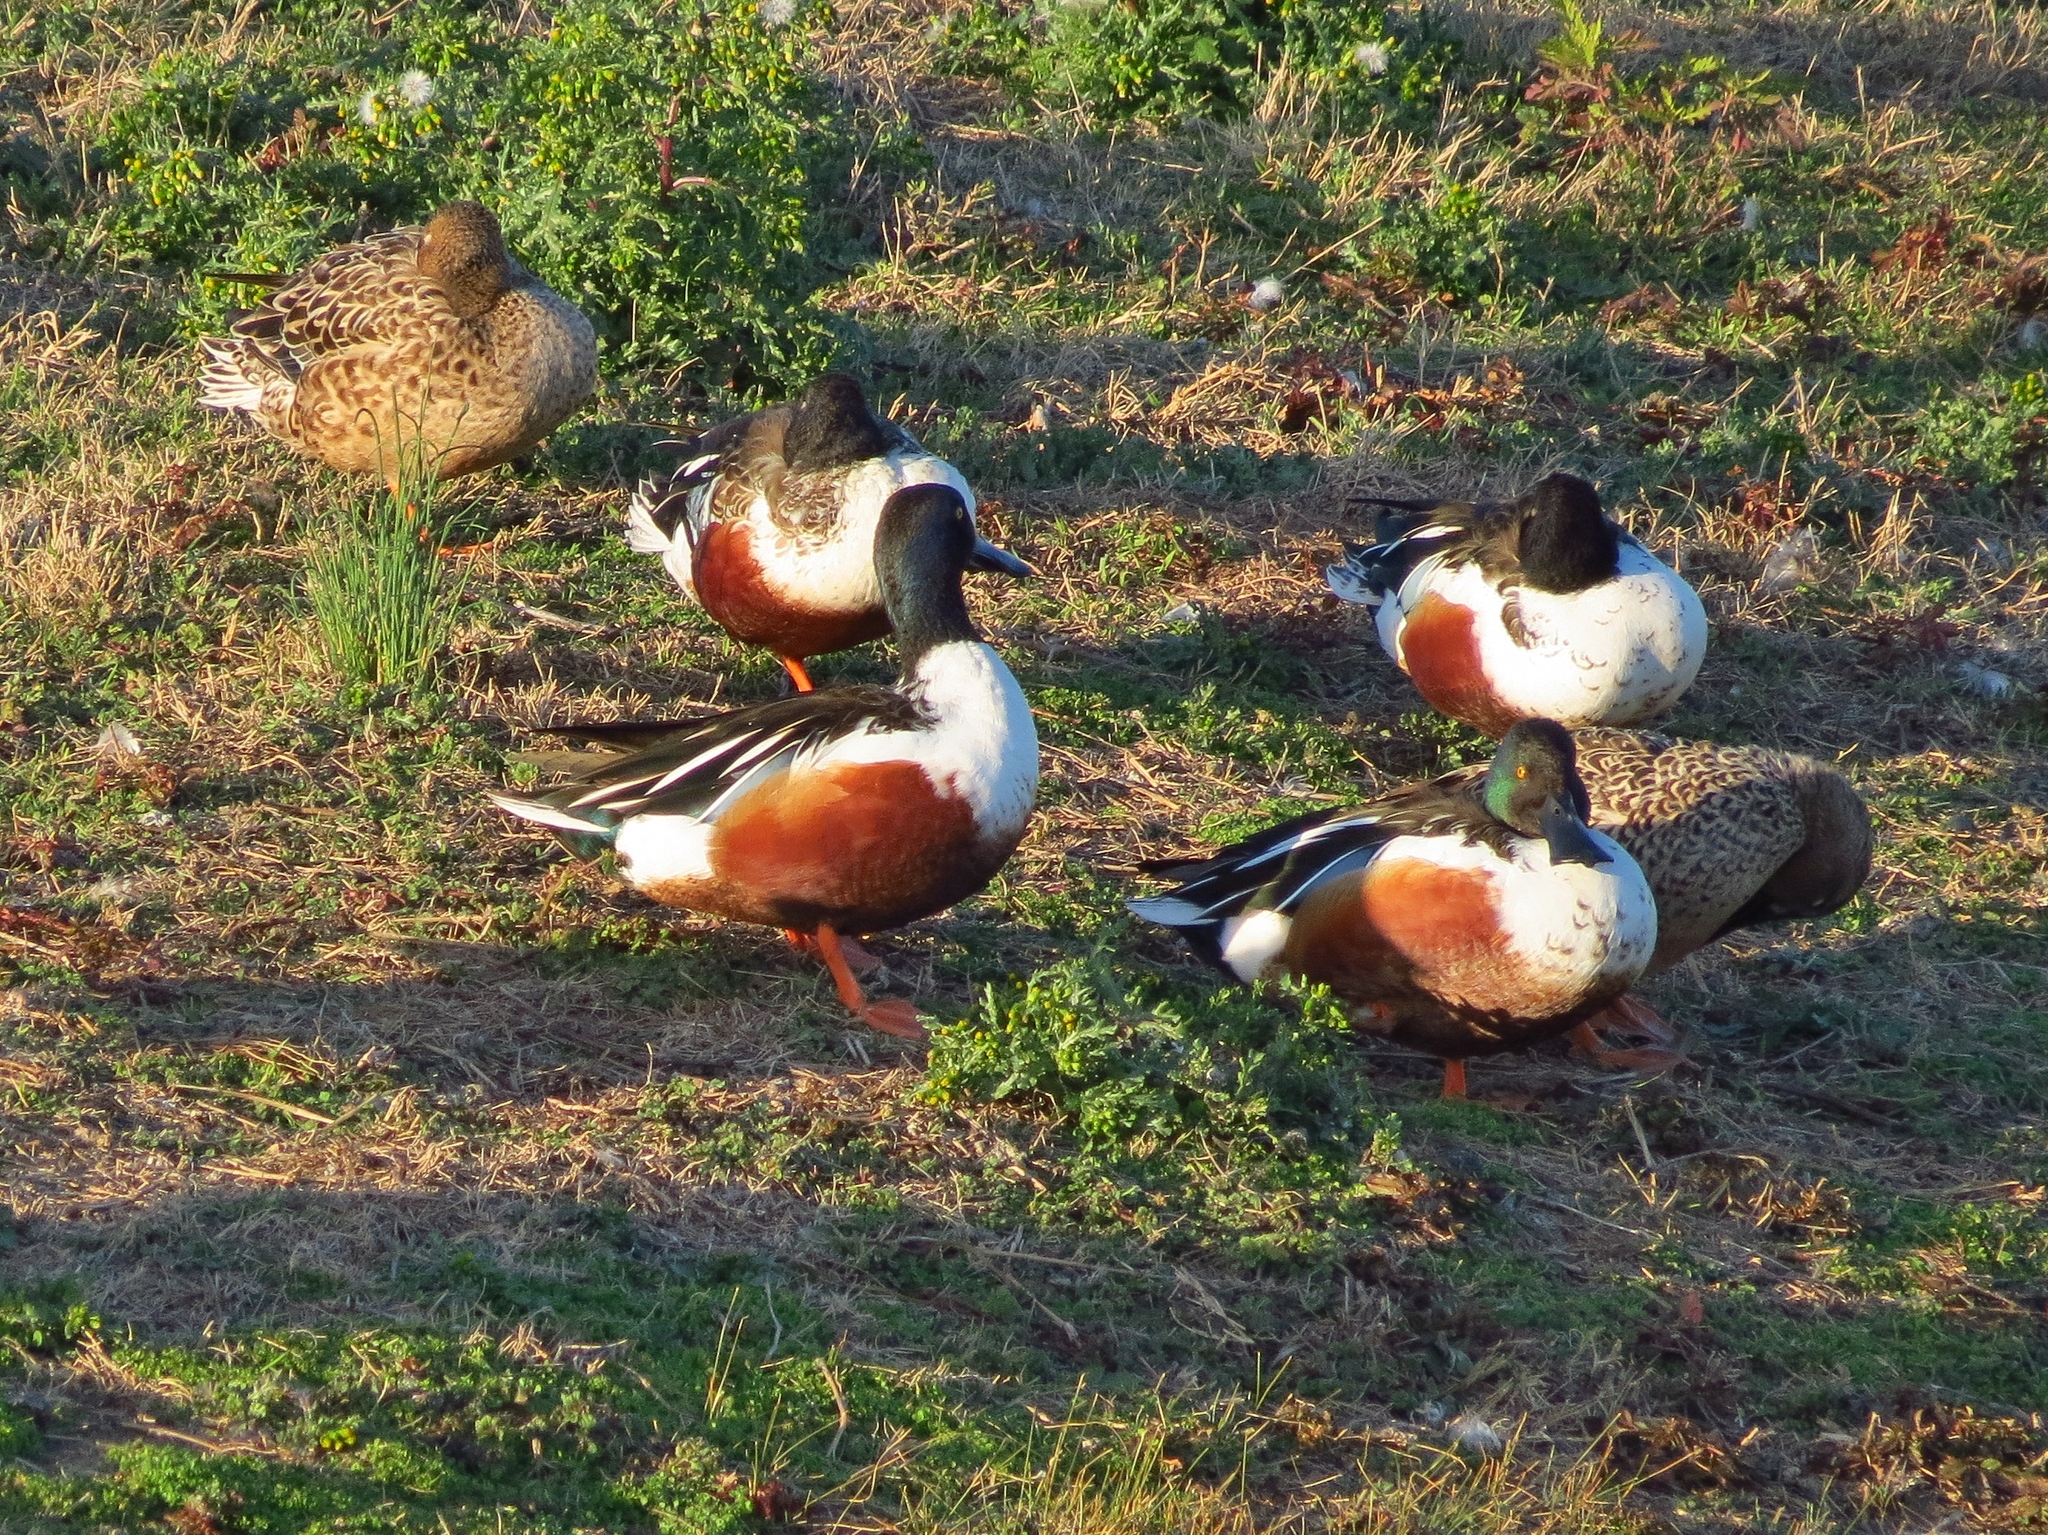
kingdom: Animalia
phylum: Chordata
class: Aves
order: Anseriformes
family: Anatidae
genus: Spatula
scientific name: Spatula clypeata
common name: Northern shoveler
